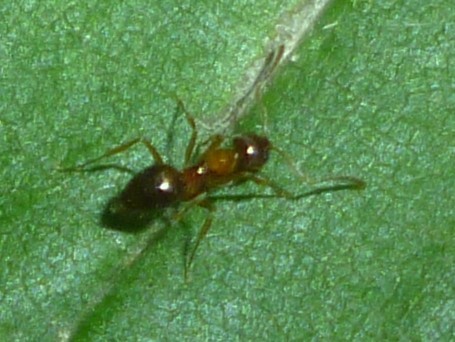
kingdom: Animalia
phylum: Arthropoda
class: Insecta
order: Hymenoptera
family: Formicidae
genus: Paratrechina
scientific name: Paratrechina flavipes
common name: Eastern asian formicine ant
